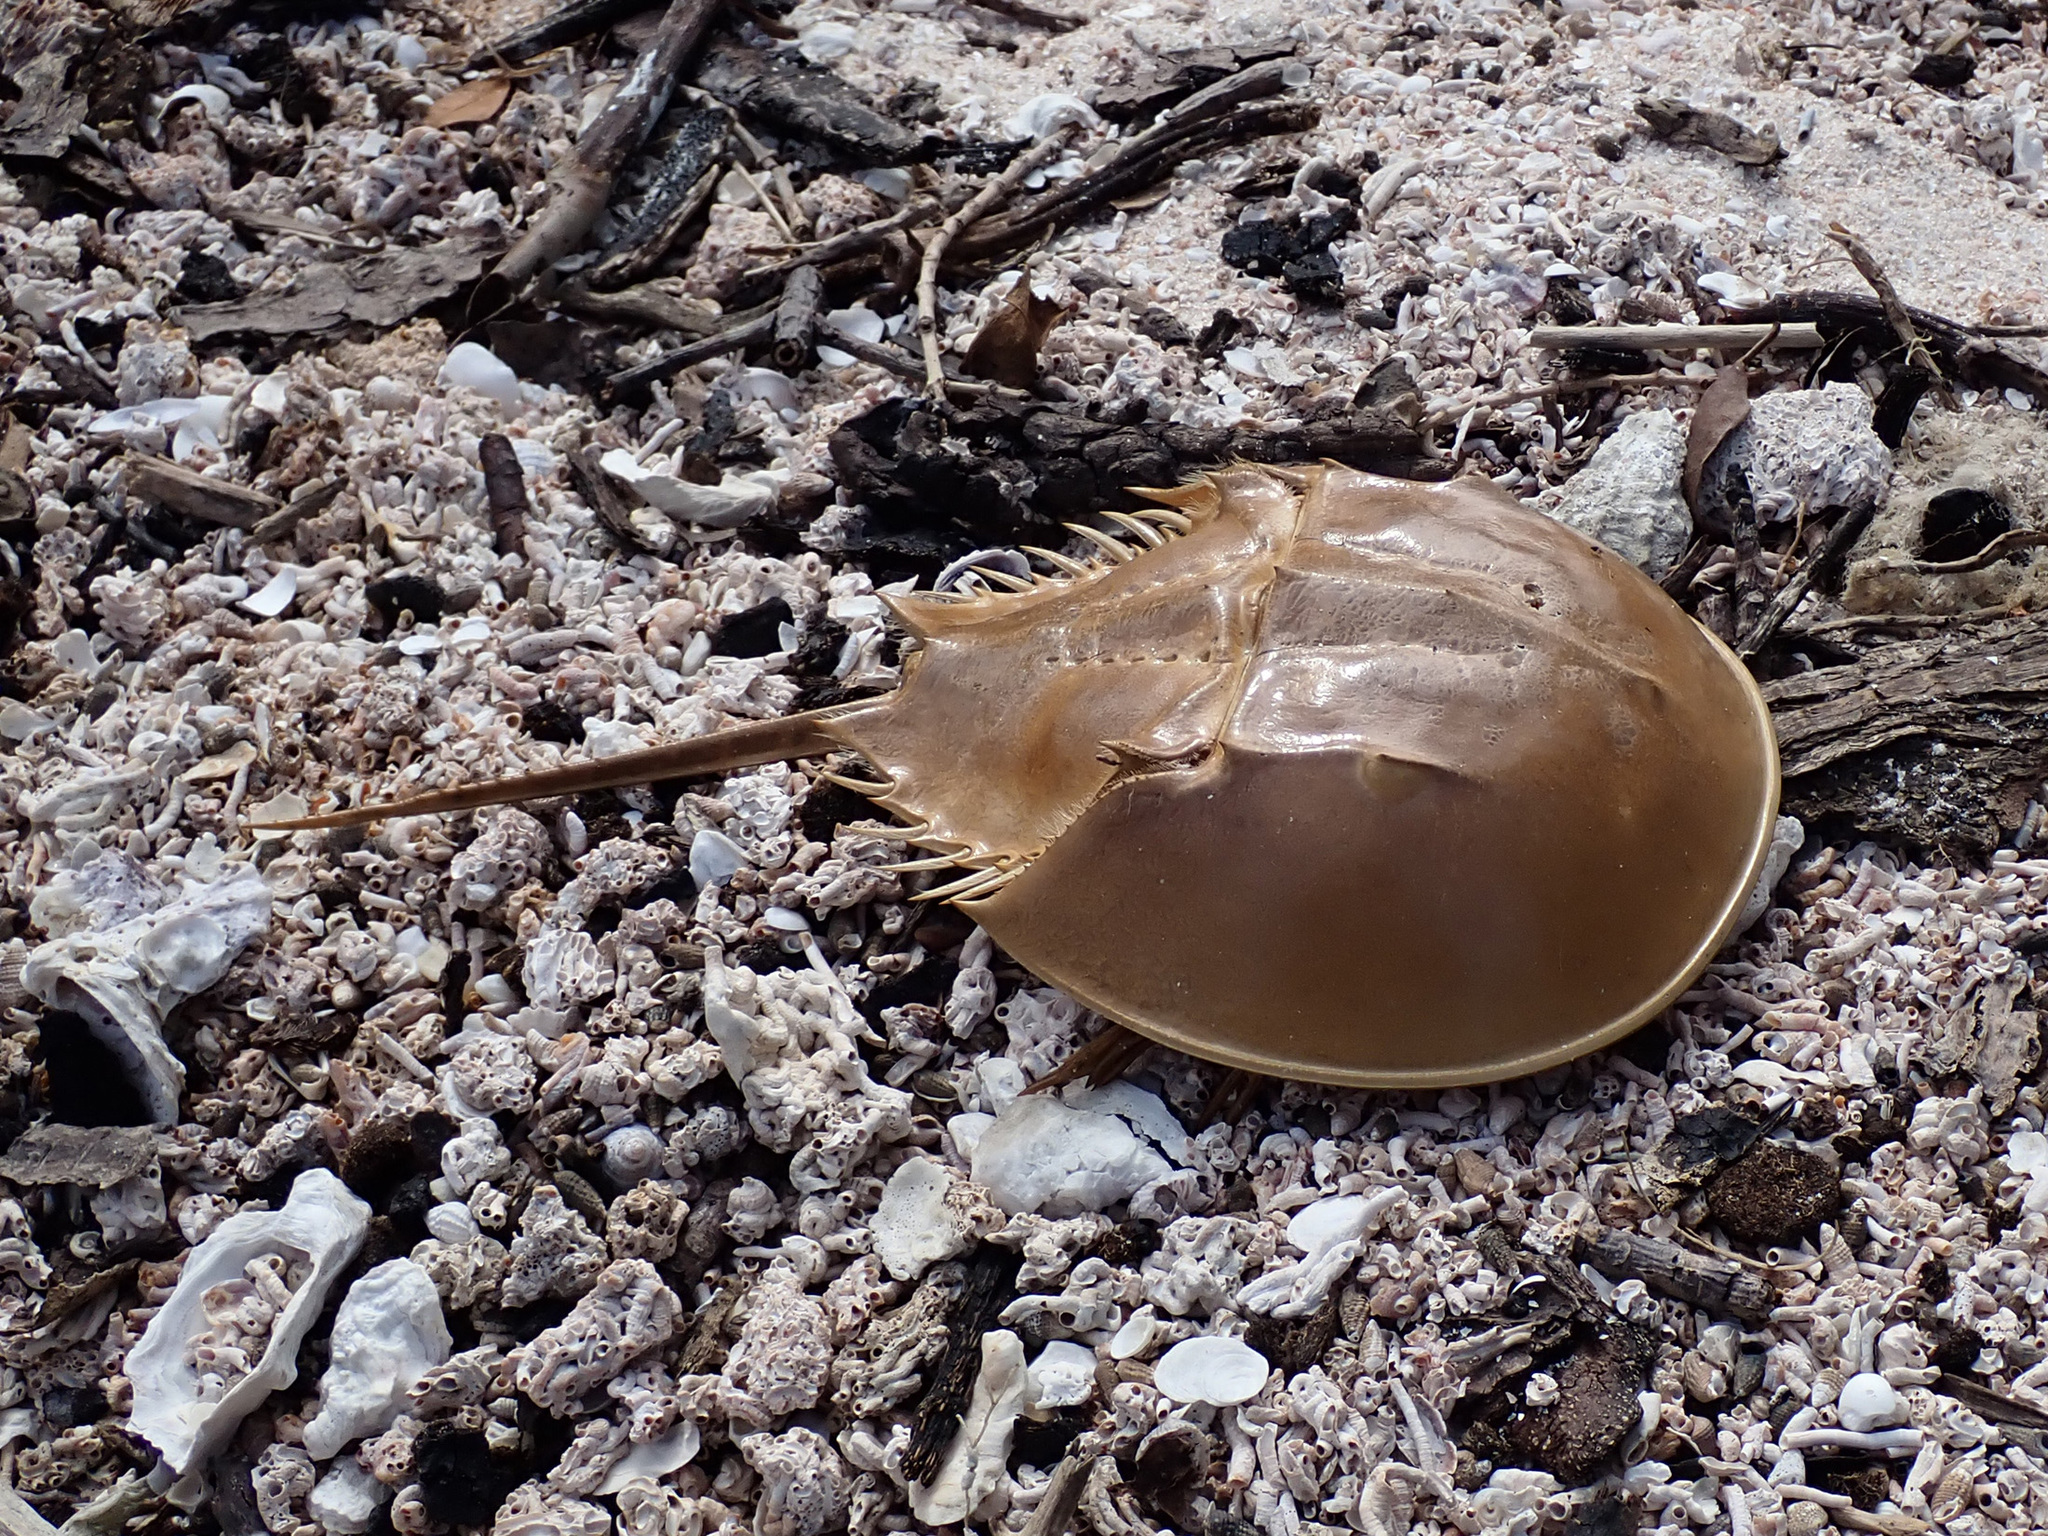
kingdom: Animalia
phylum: Arthropoda
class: Merostomata
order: Xiphosurida
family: Limulidae
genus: Limulus
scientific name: Limulus polyphemus
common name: Horseshoe crab
